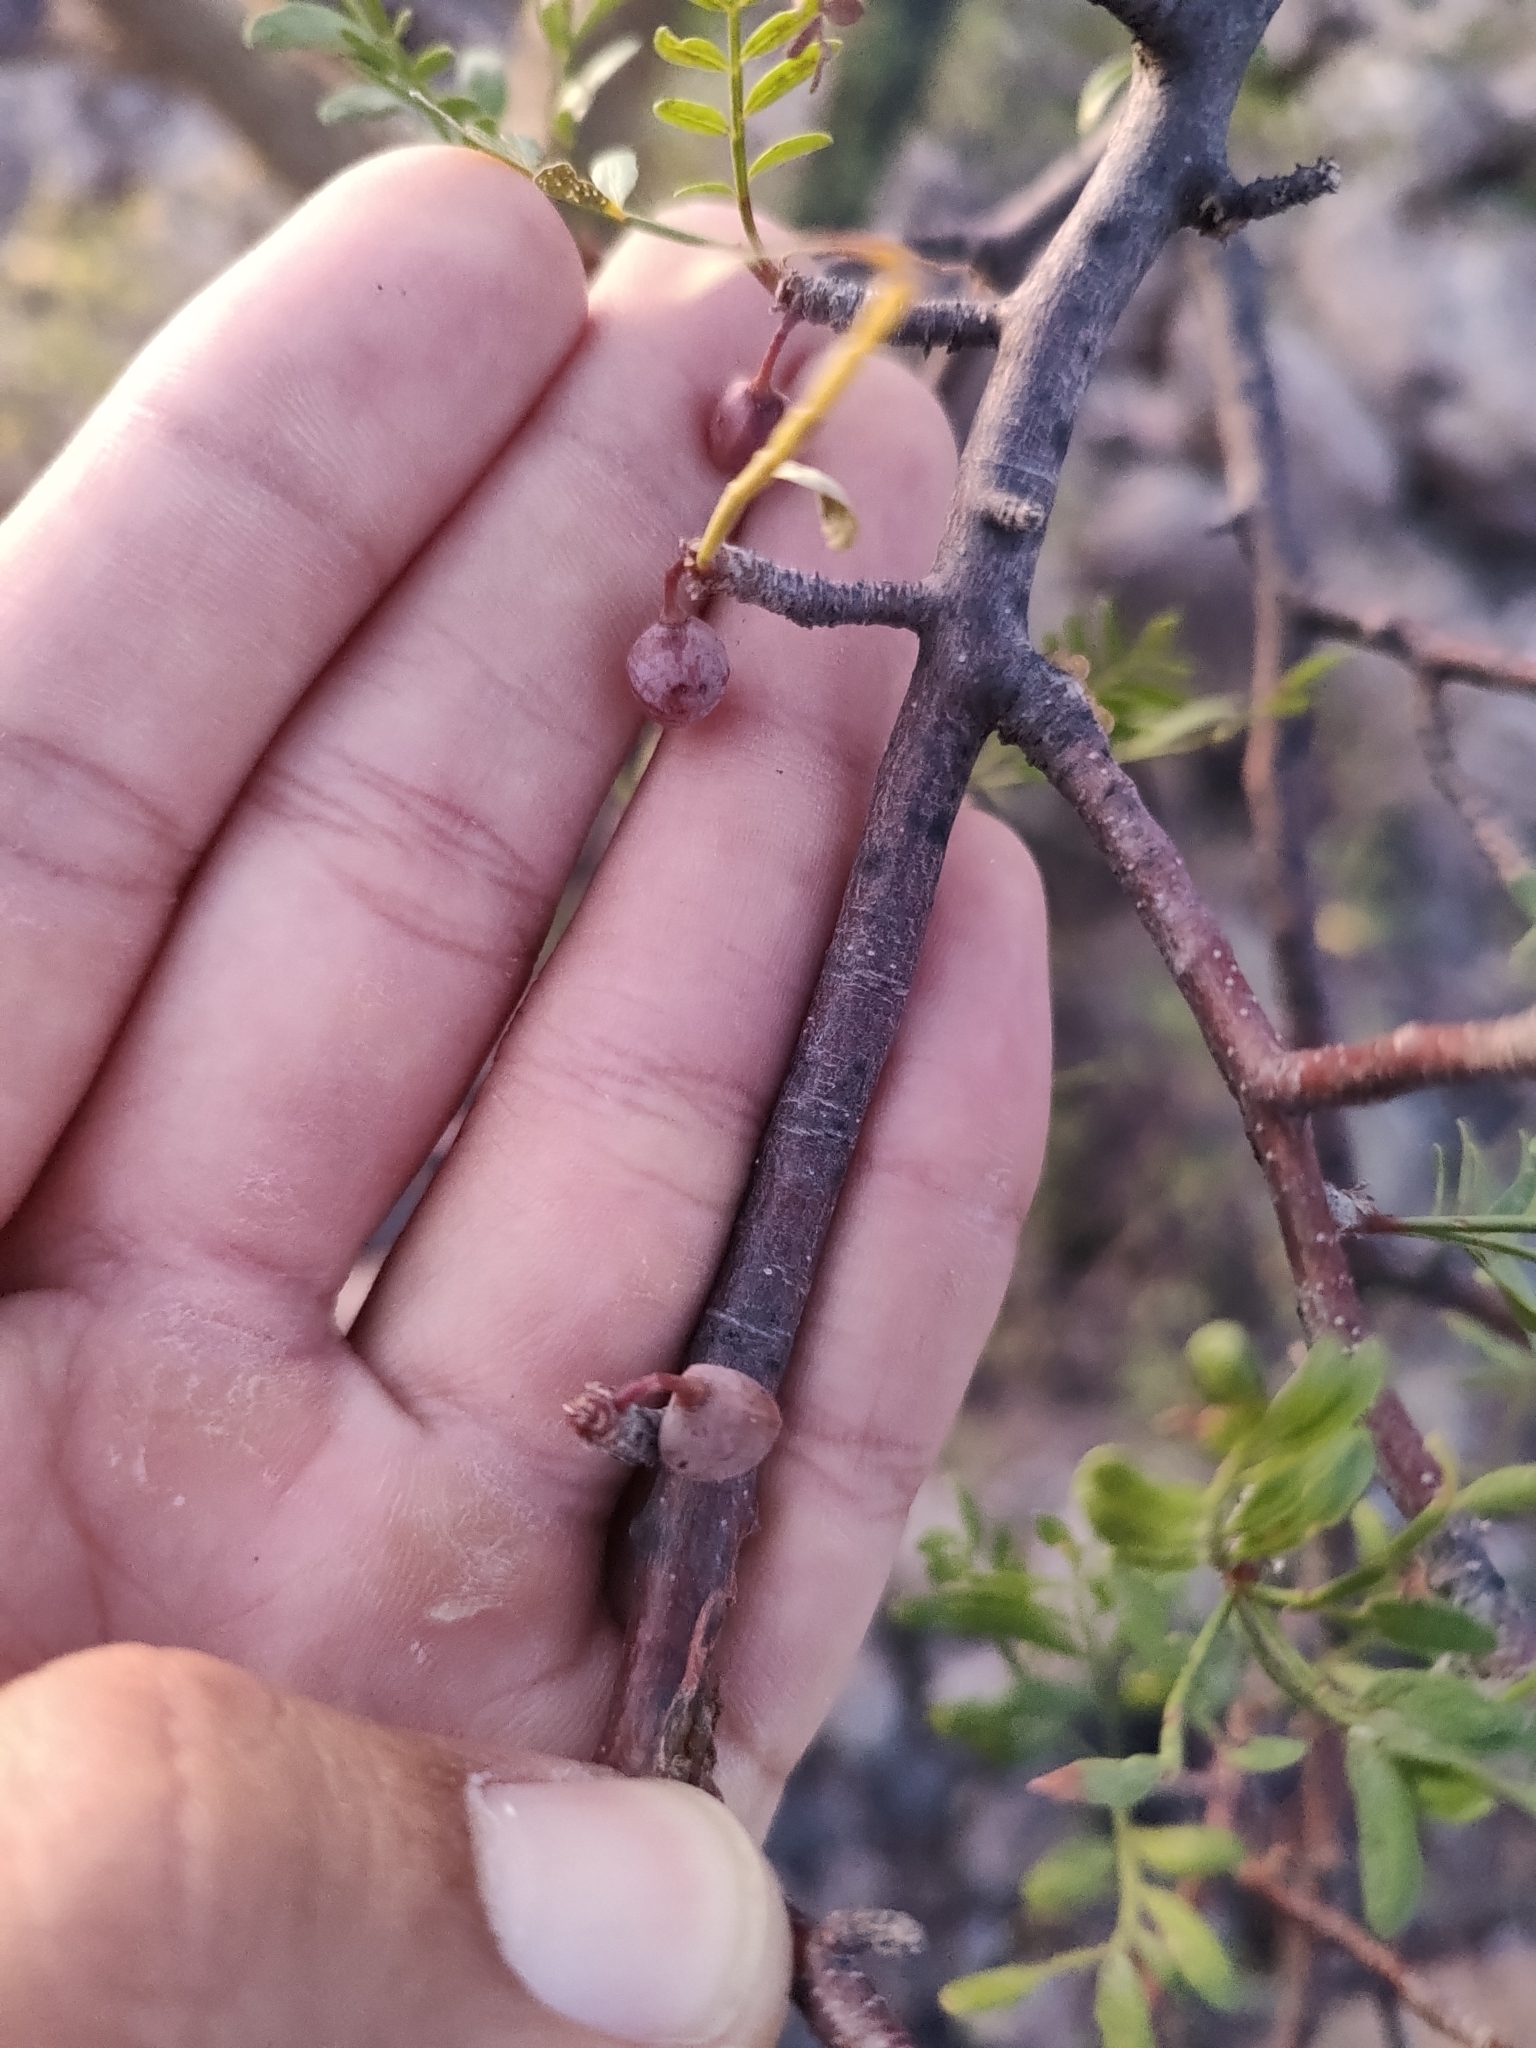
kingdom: Plantae
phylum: Tracheophyta
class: Magnoliopsida
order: Sapindales
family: Burseraceae
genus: Bursera
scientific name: Bursera microphylla
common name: Elephant tree
